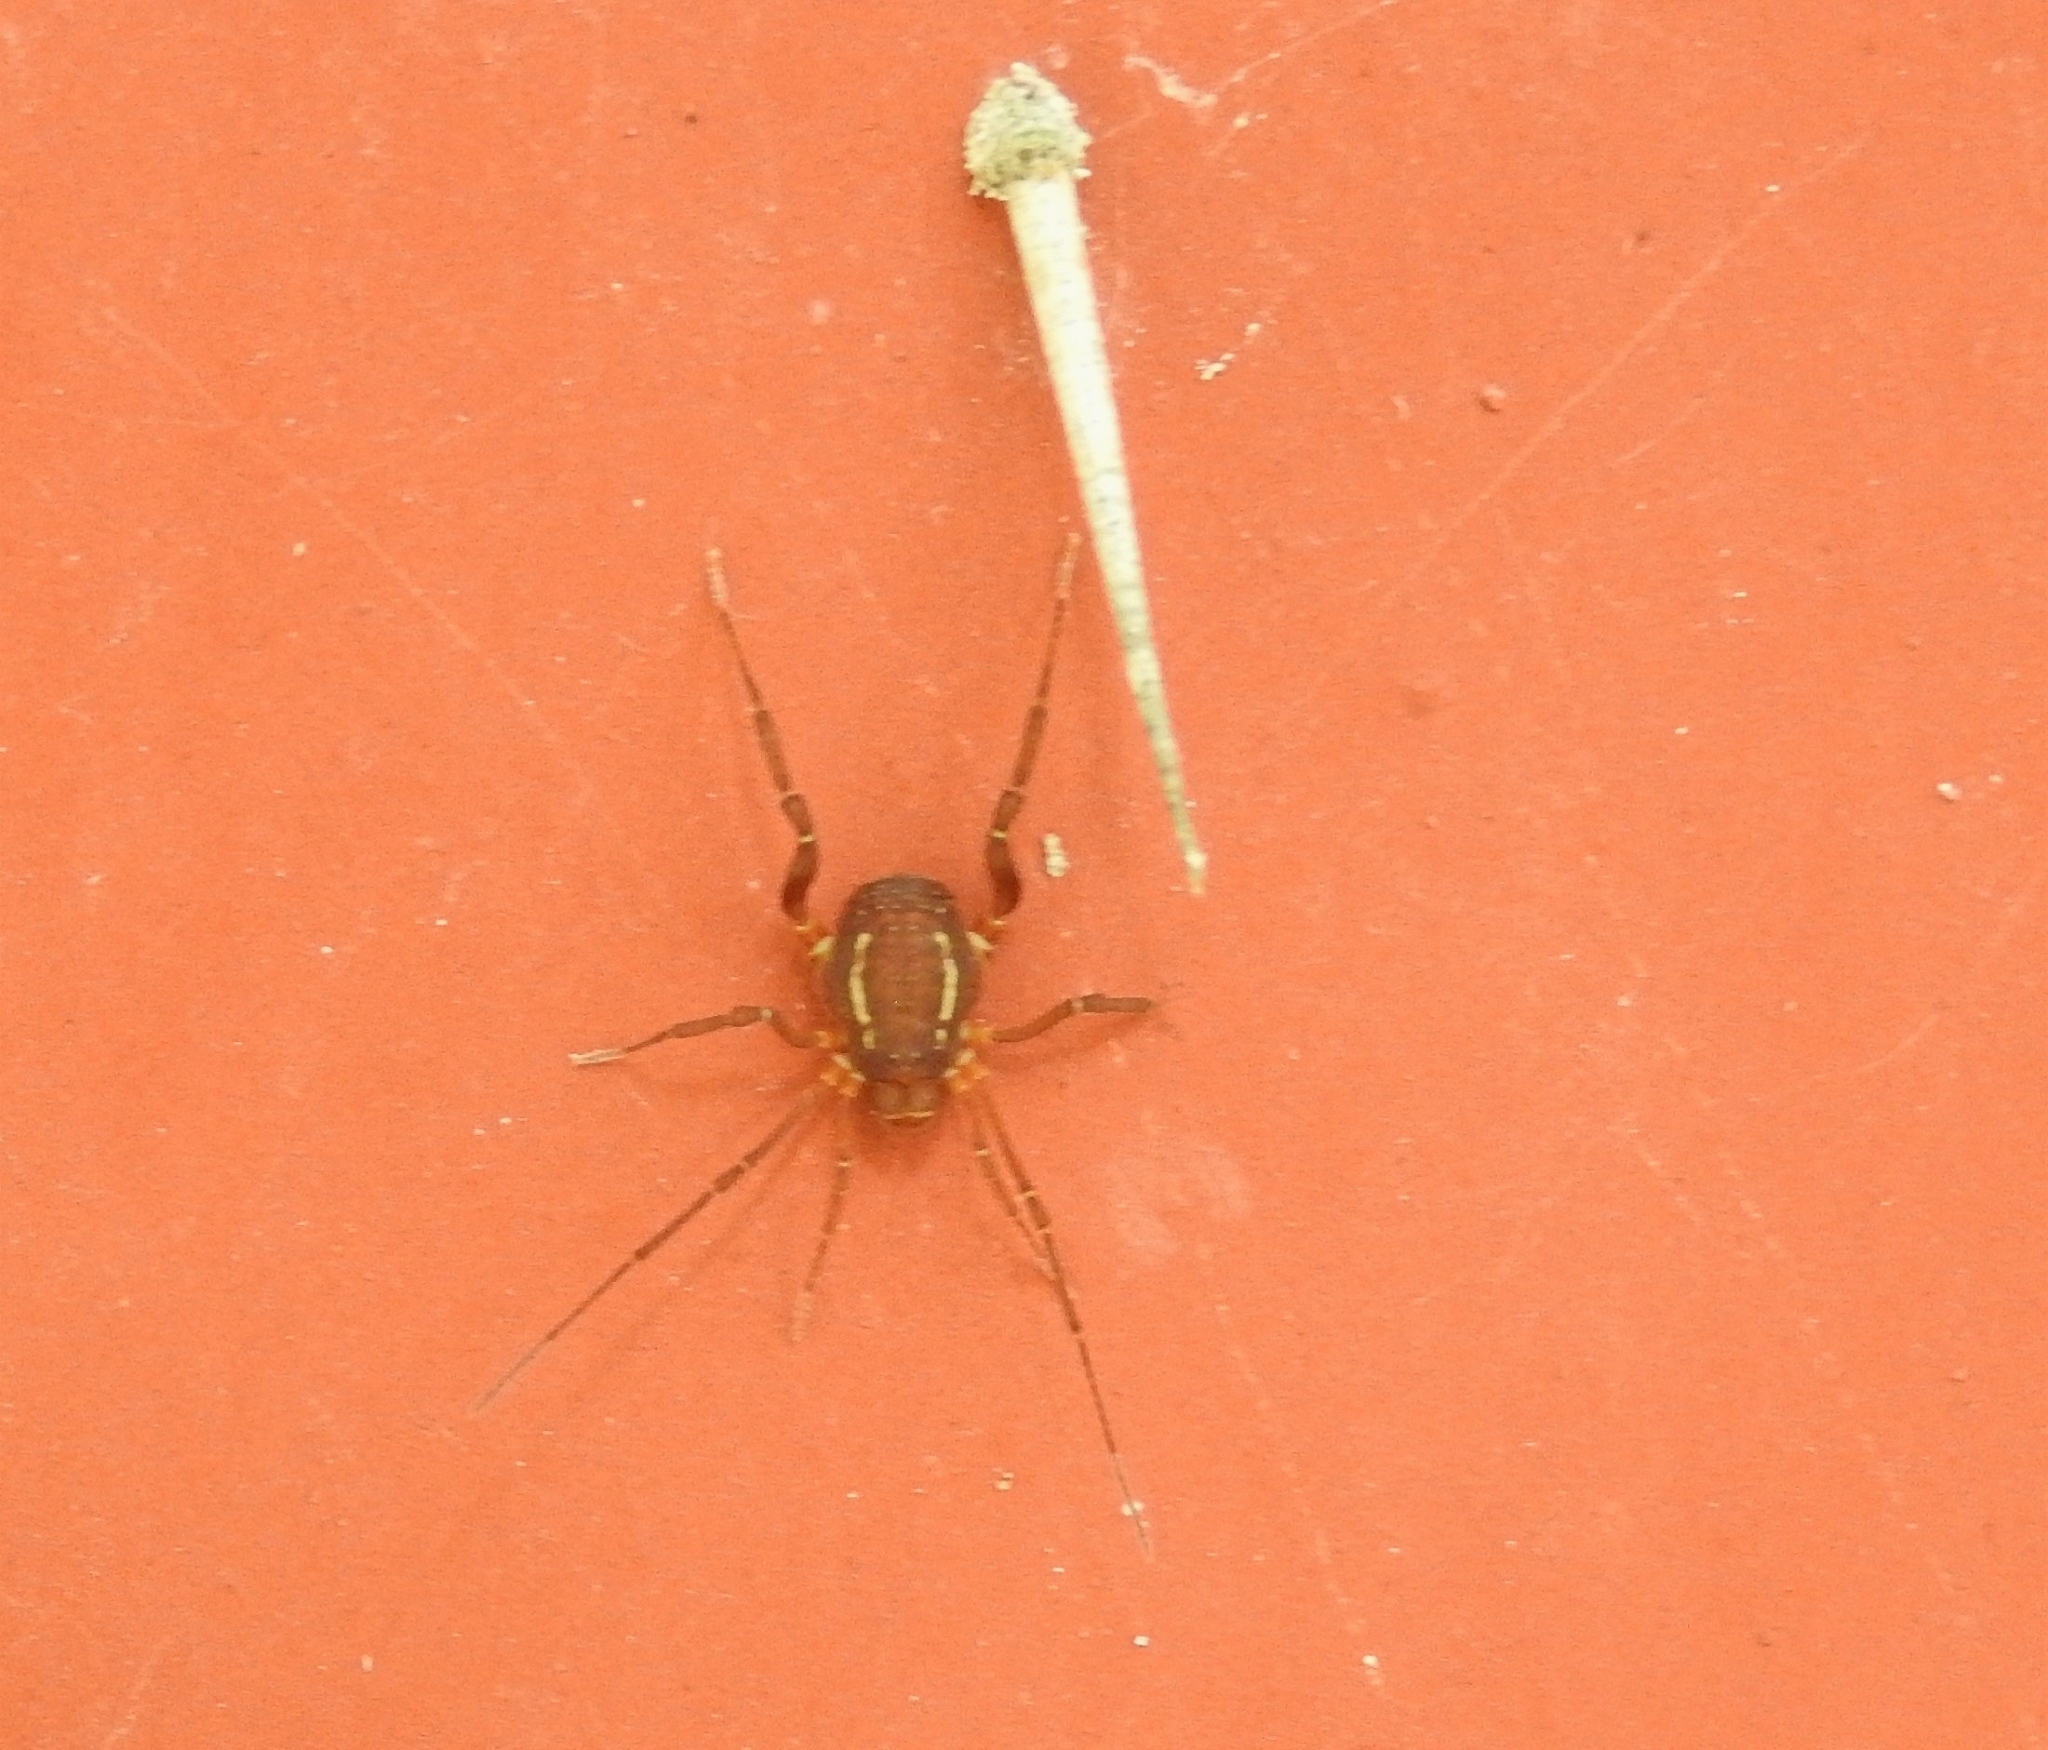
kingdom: Animalia
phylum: Arthropoda
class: Arachnida
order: Opiliones
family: Cosmetidae
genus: Holovonones
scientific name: Holovonones compressus
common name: Harvestmen
